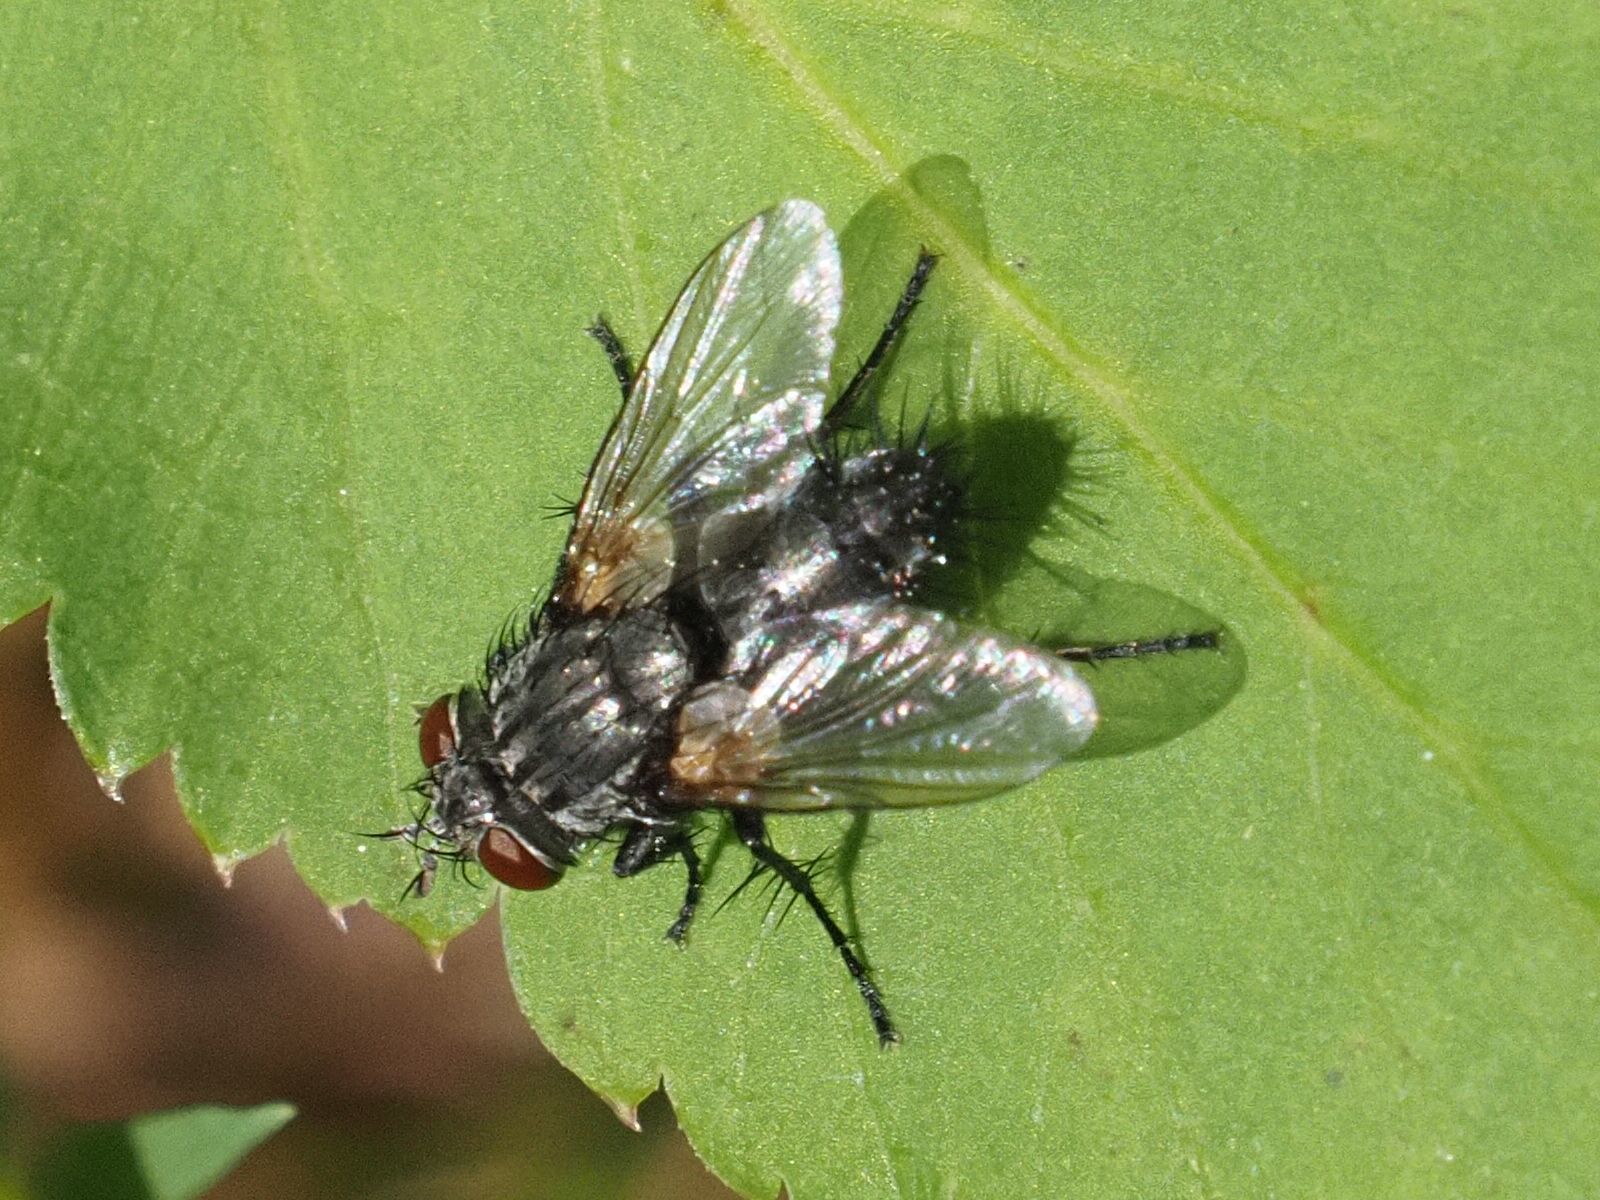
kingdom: Animalia
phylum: Arthropoda
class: Insecta
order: Diptera
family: Tachinidae
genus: Voria
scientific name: Voria ruralis
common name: Parasitic fly
